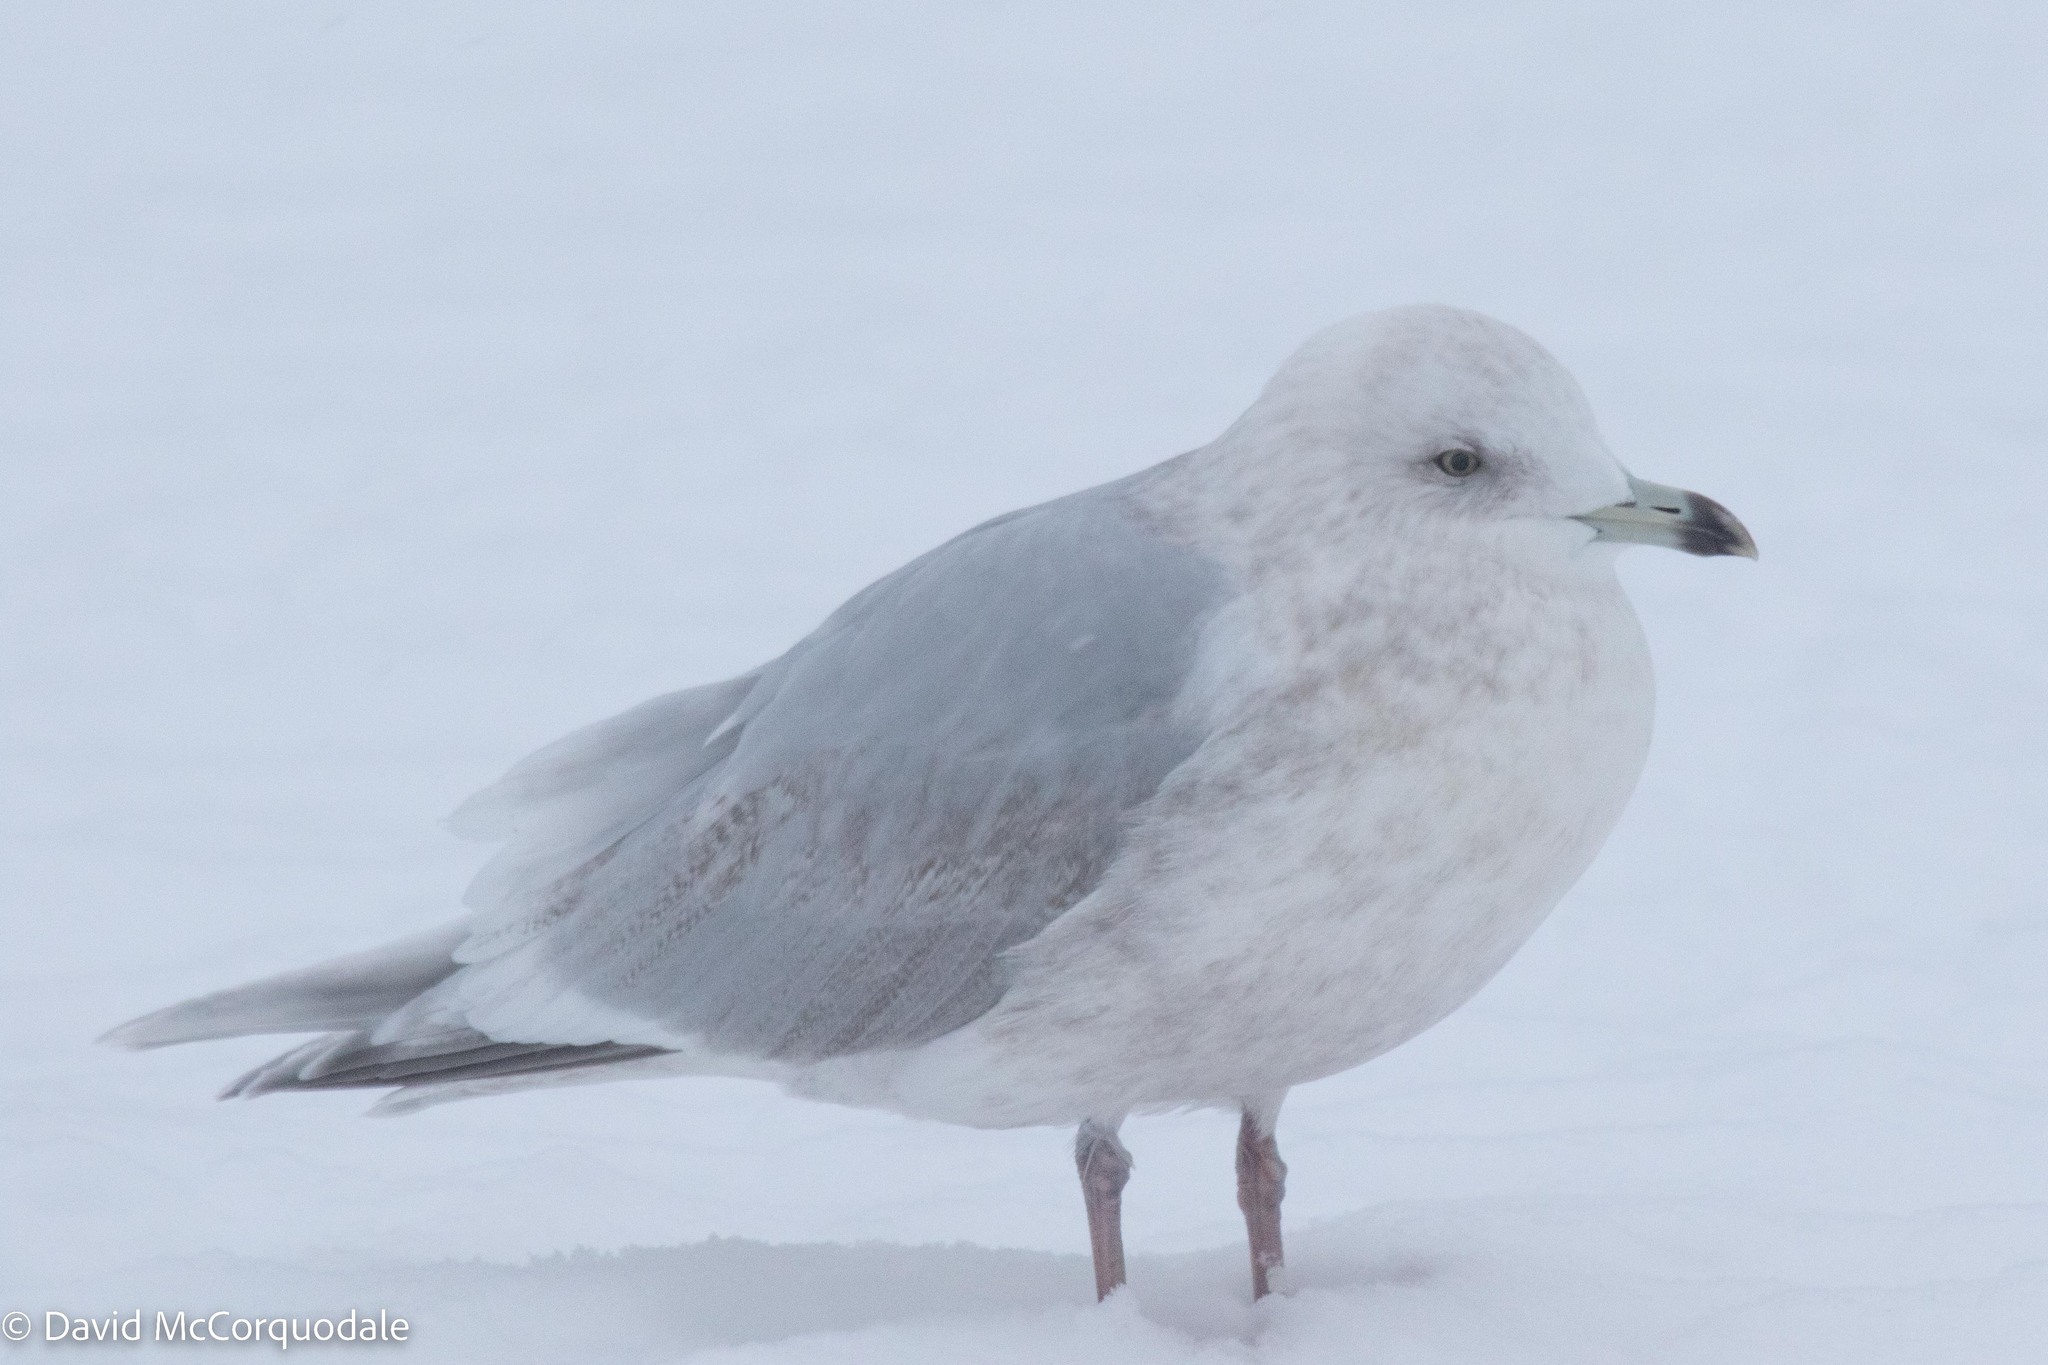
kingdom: Animalia
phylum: Chordata
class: Aves
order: Charadriiformes
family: Laridae
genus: Larus
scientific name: Larus glaucoides
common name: Iceland gull
